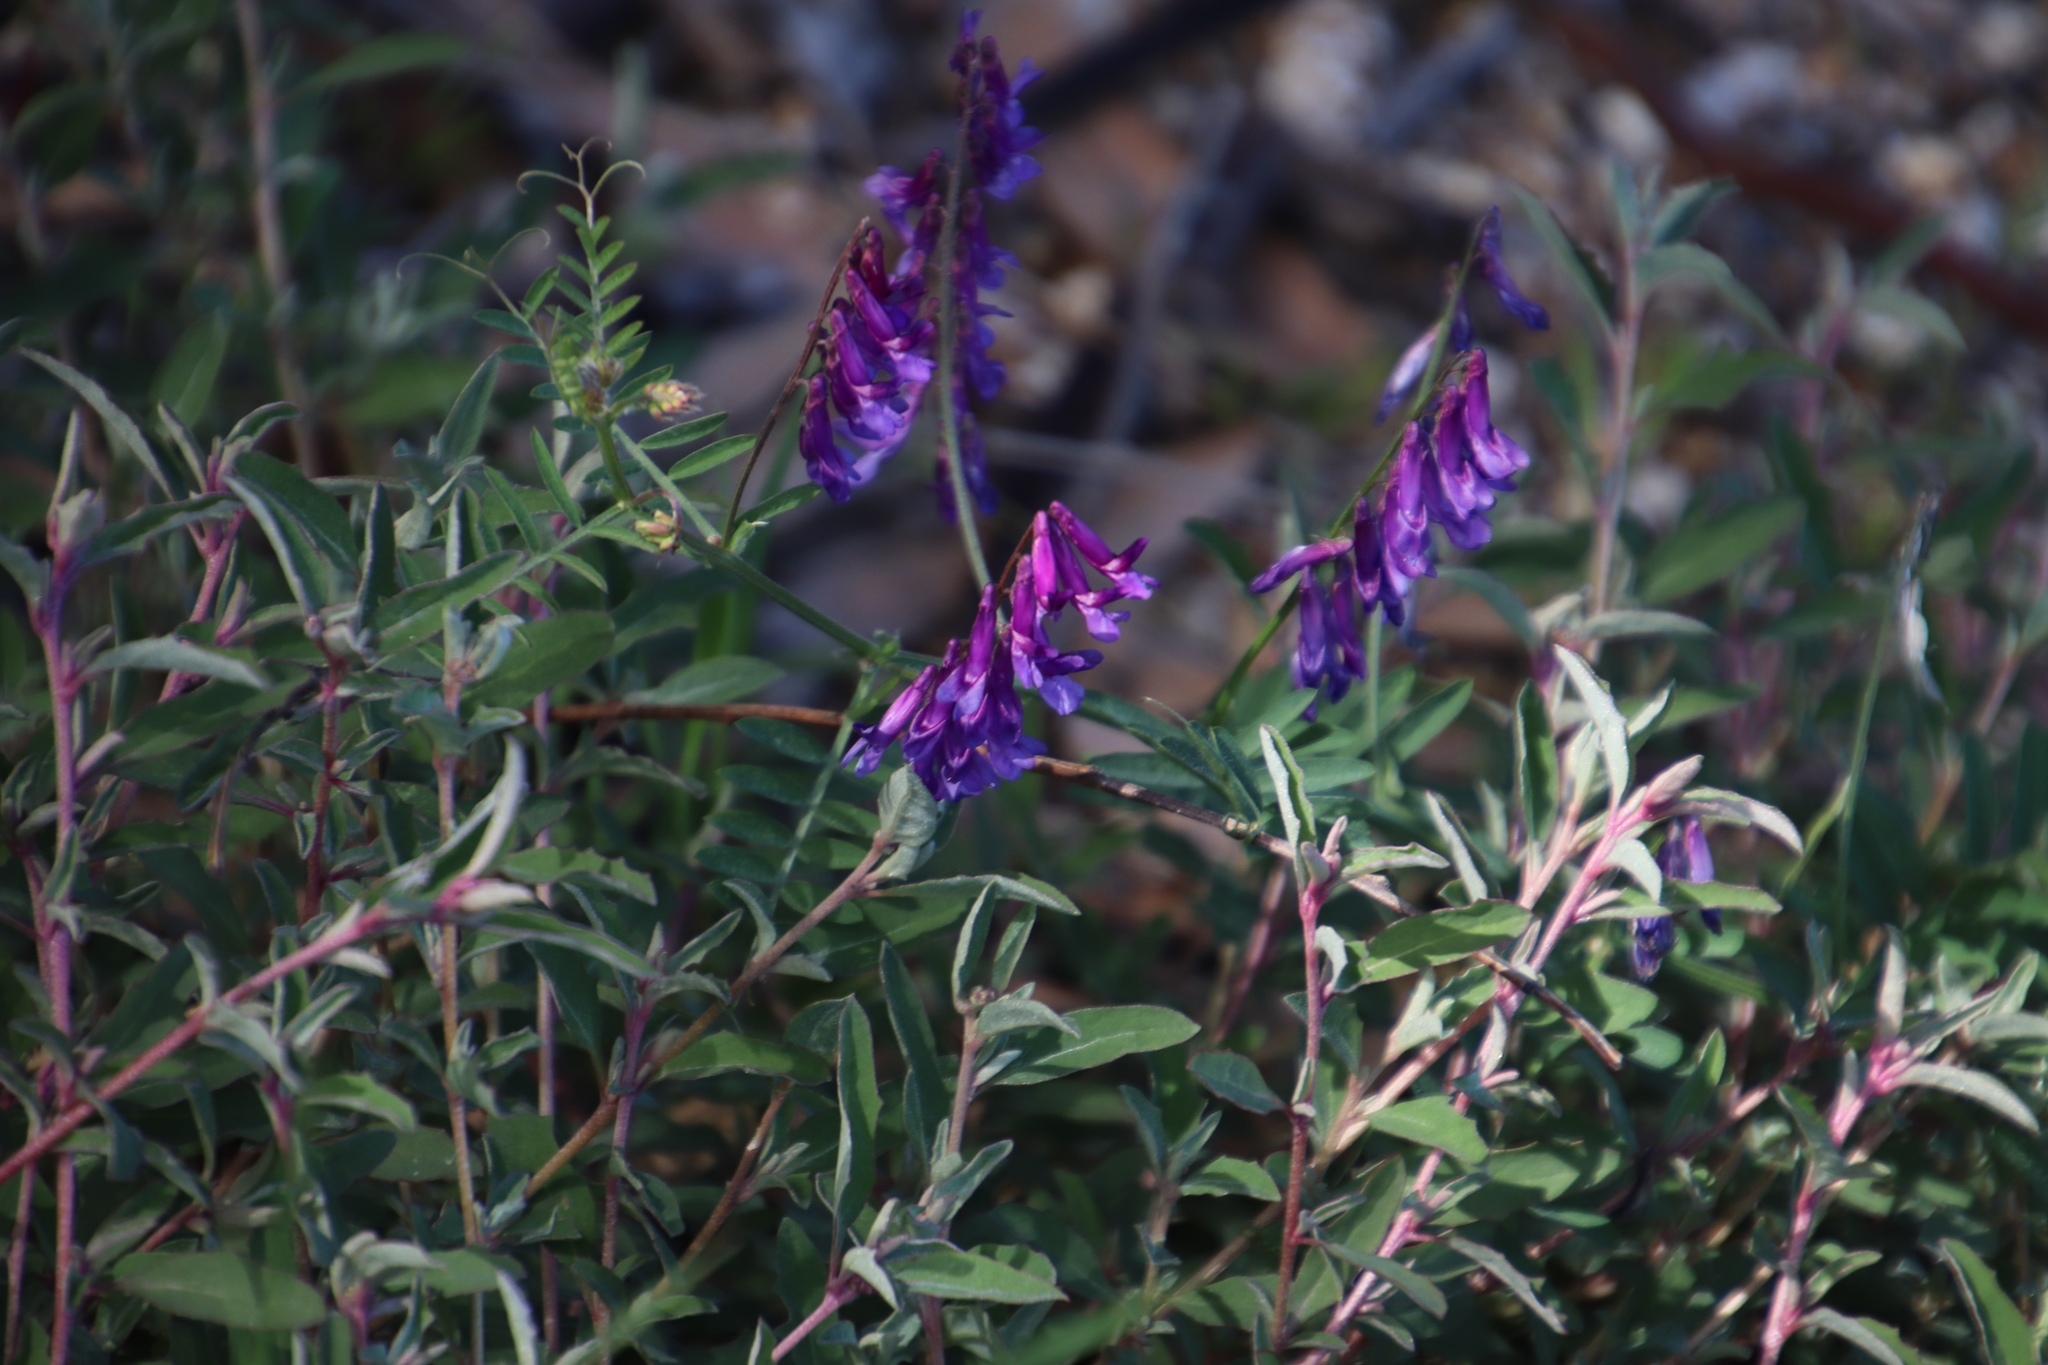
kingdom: Plantae
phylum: Tracheophyta
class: Magnoliopsida
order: Fabales
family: Fabaceae
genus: Vicia
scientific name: Vicia eriocarpa
